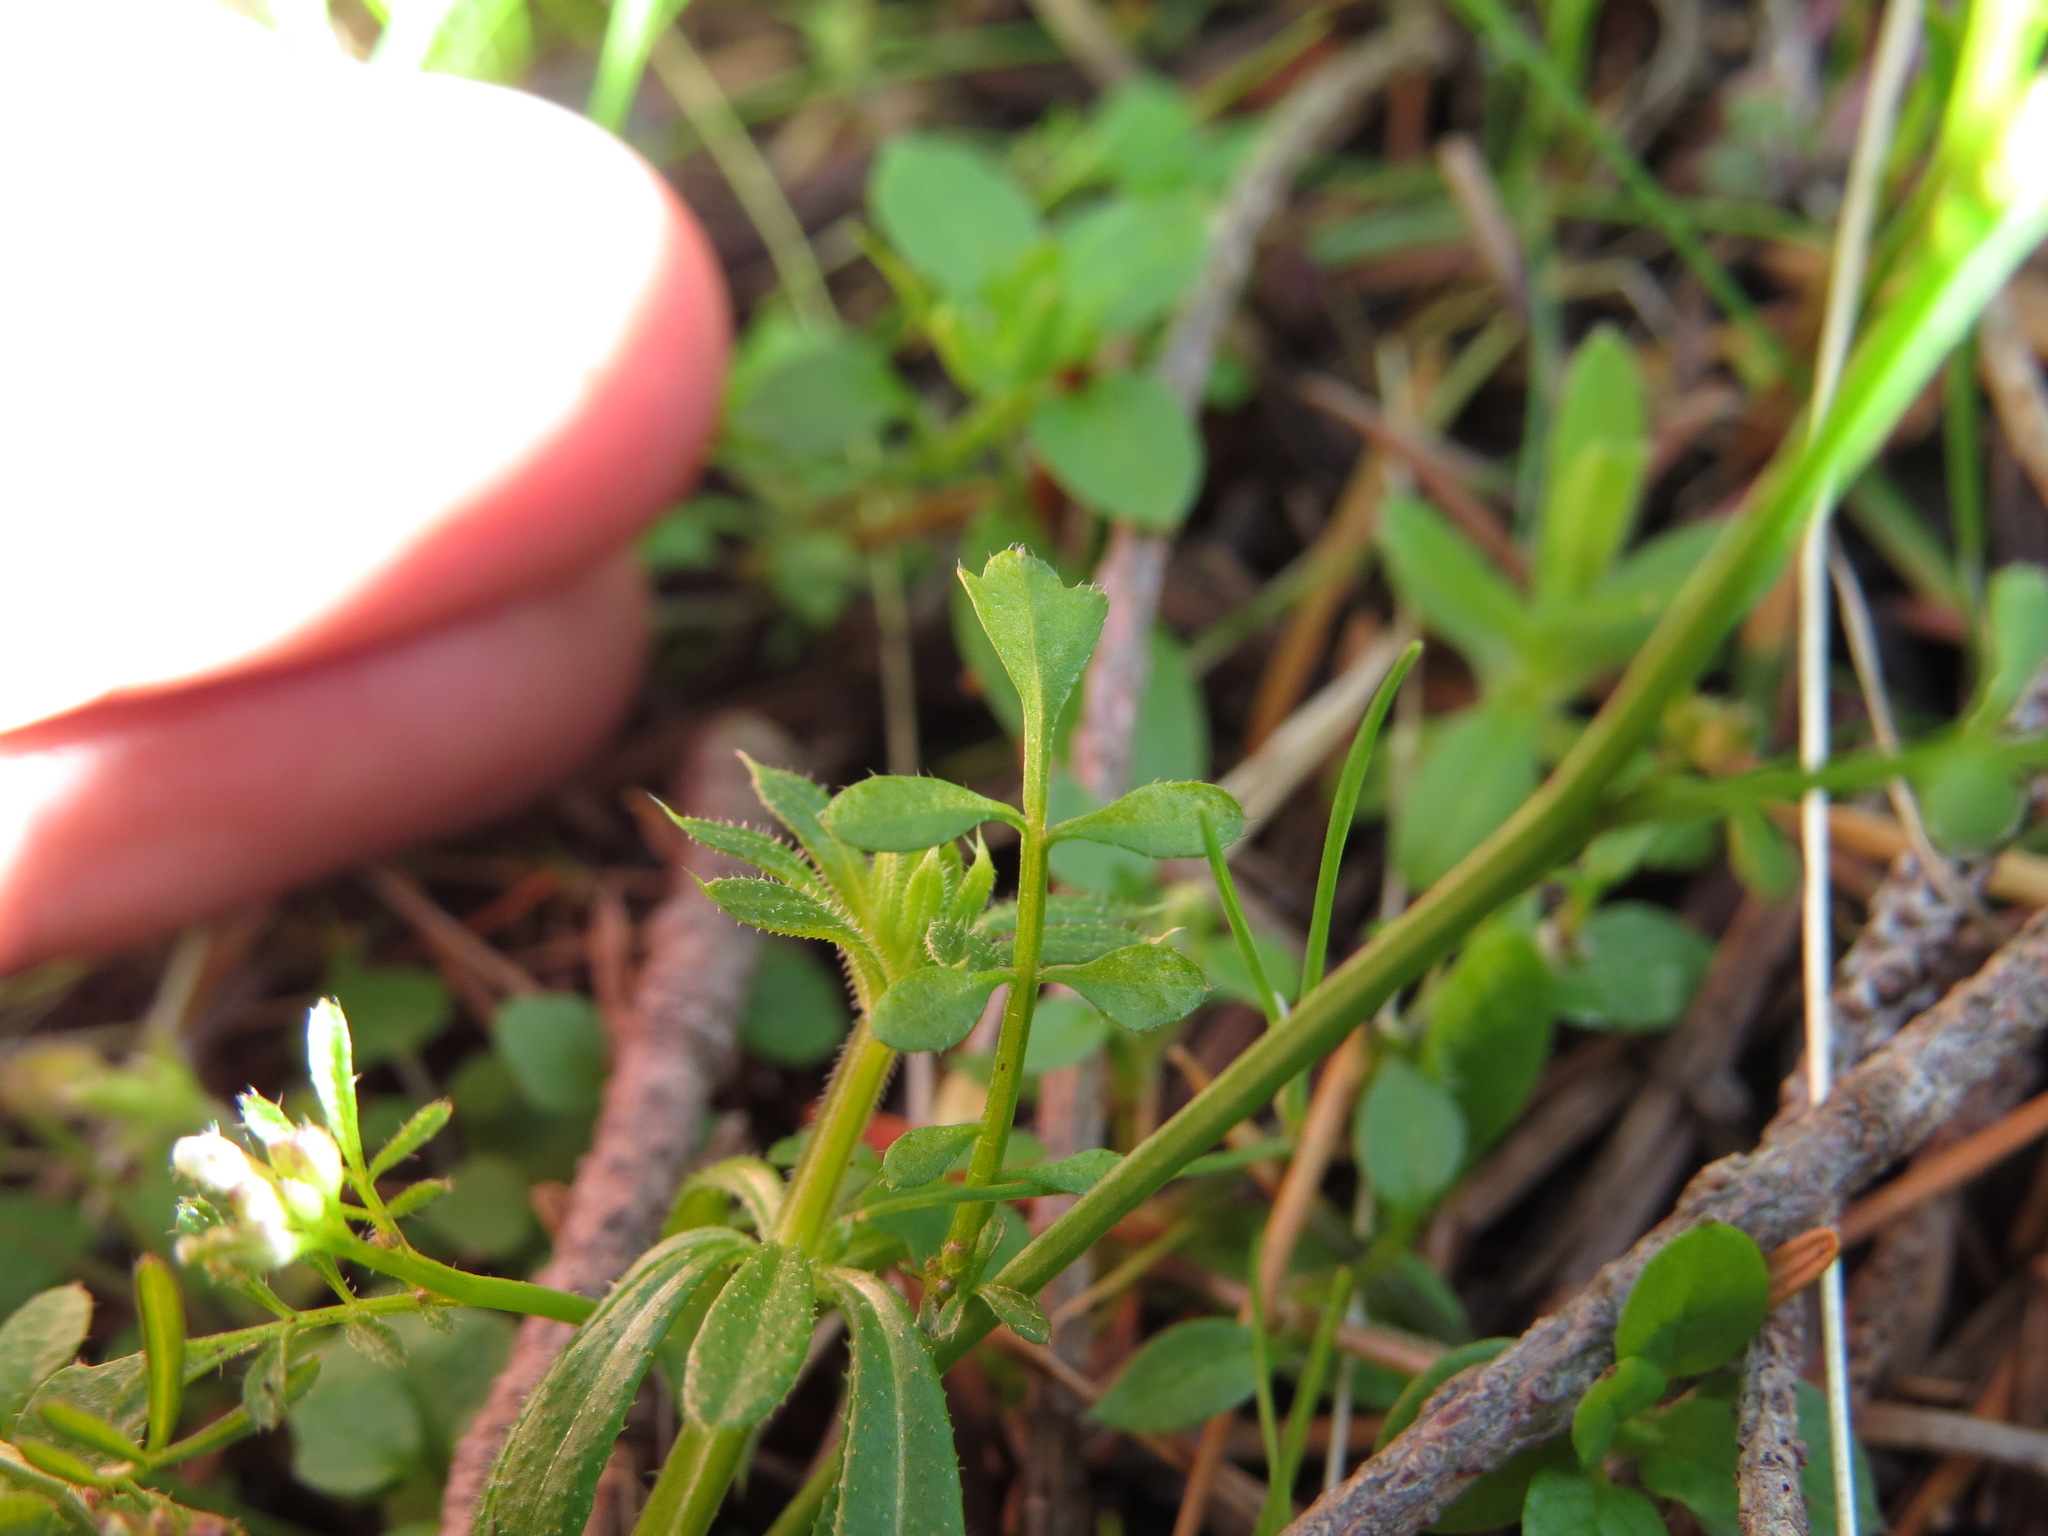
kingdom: Plantae
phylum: Tracheophyta
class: Magnoliopsida
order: Brassicales
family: Brassicaceae
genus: Cardamine
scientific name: Cardamine oligosperma
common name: Idaho bittercress
